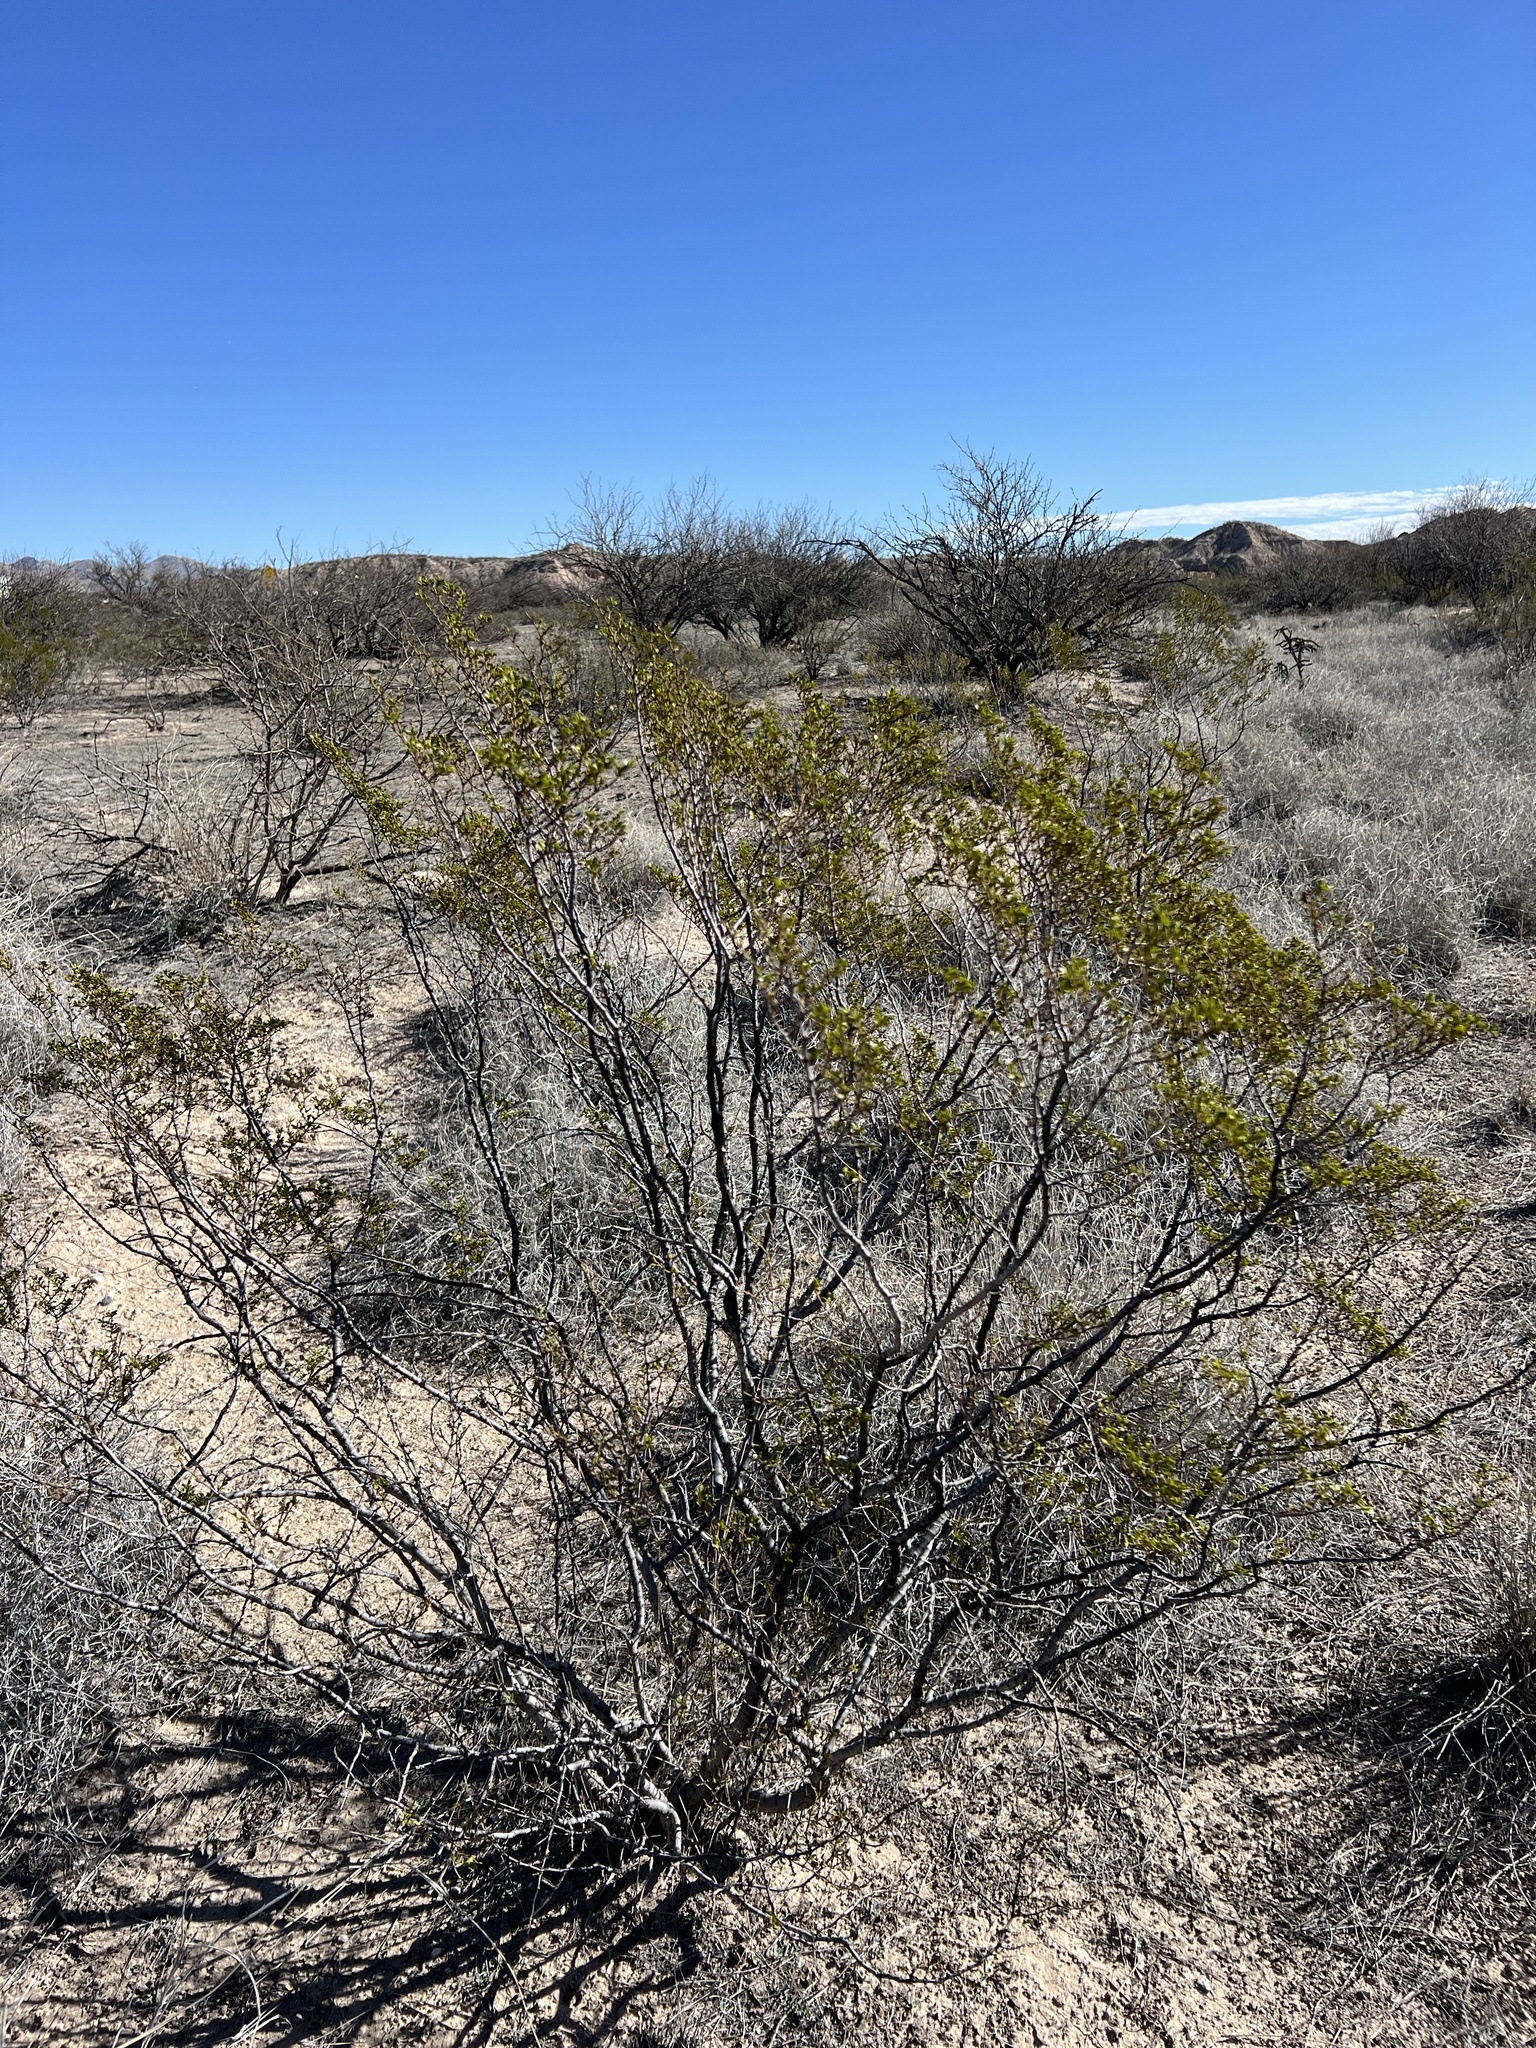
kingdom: Plantae
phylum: Tracheophyta
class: Magnoliopsida
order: Zygophyllales
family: Zygophyllaceae
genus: Larrea
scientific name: Larrea tridentata
